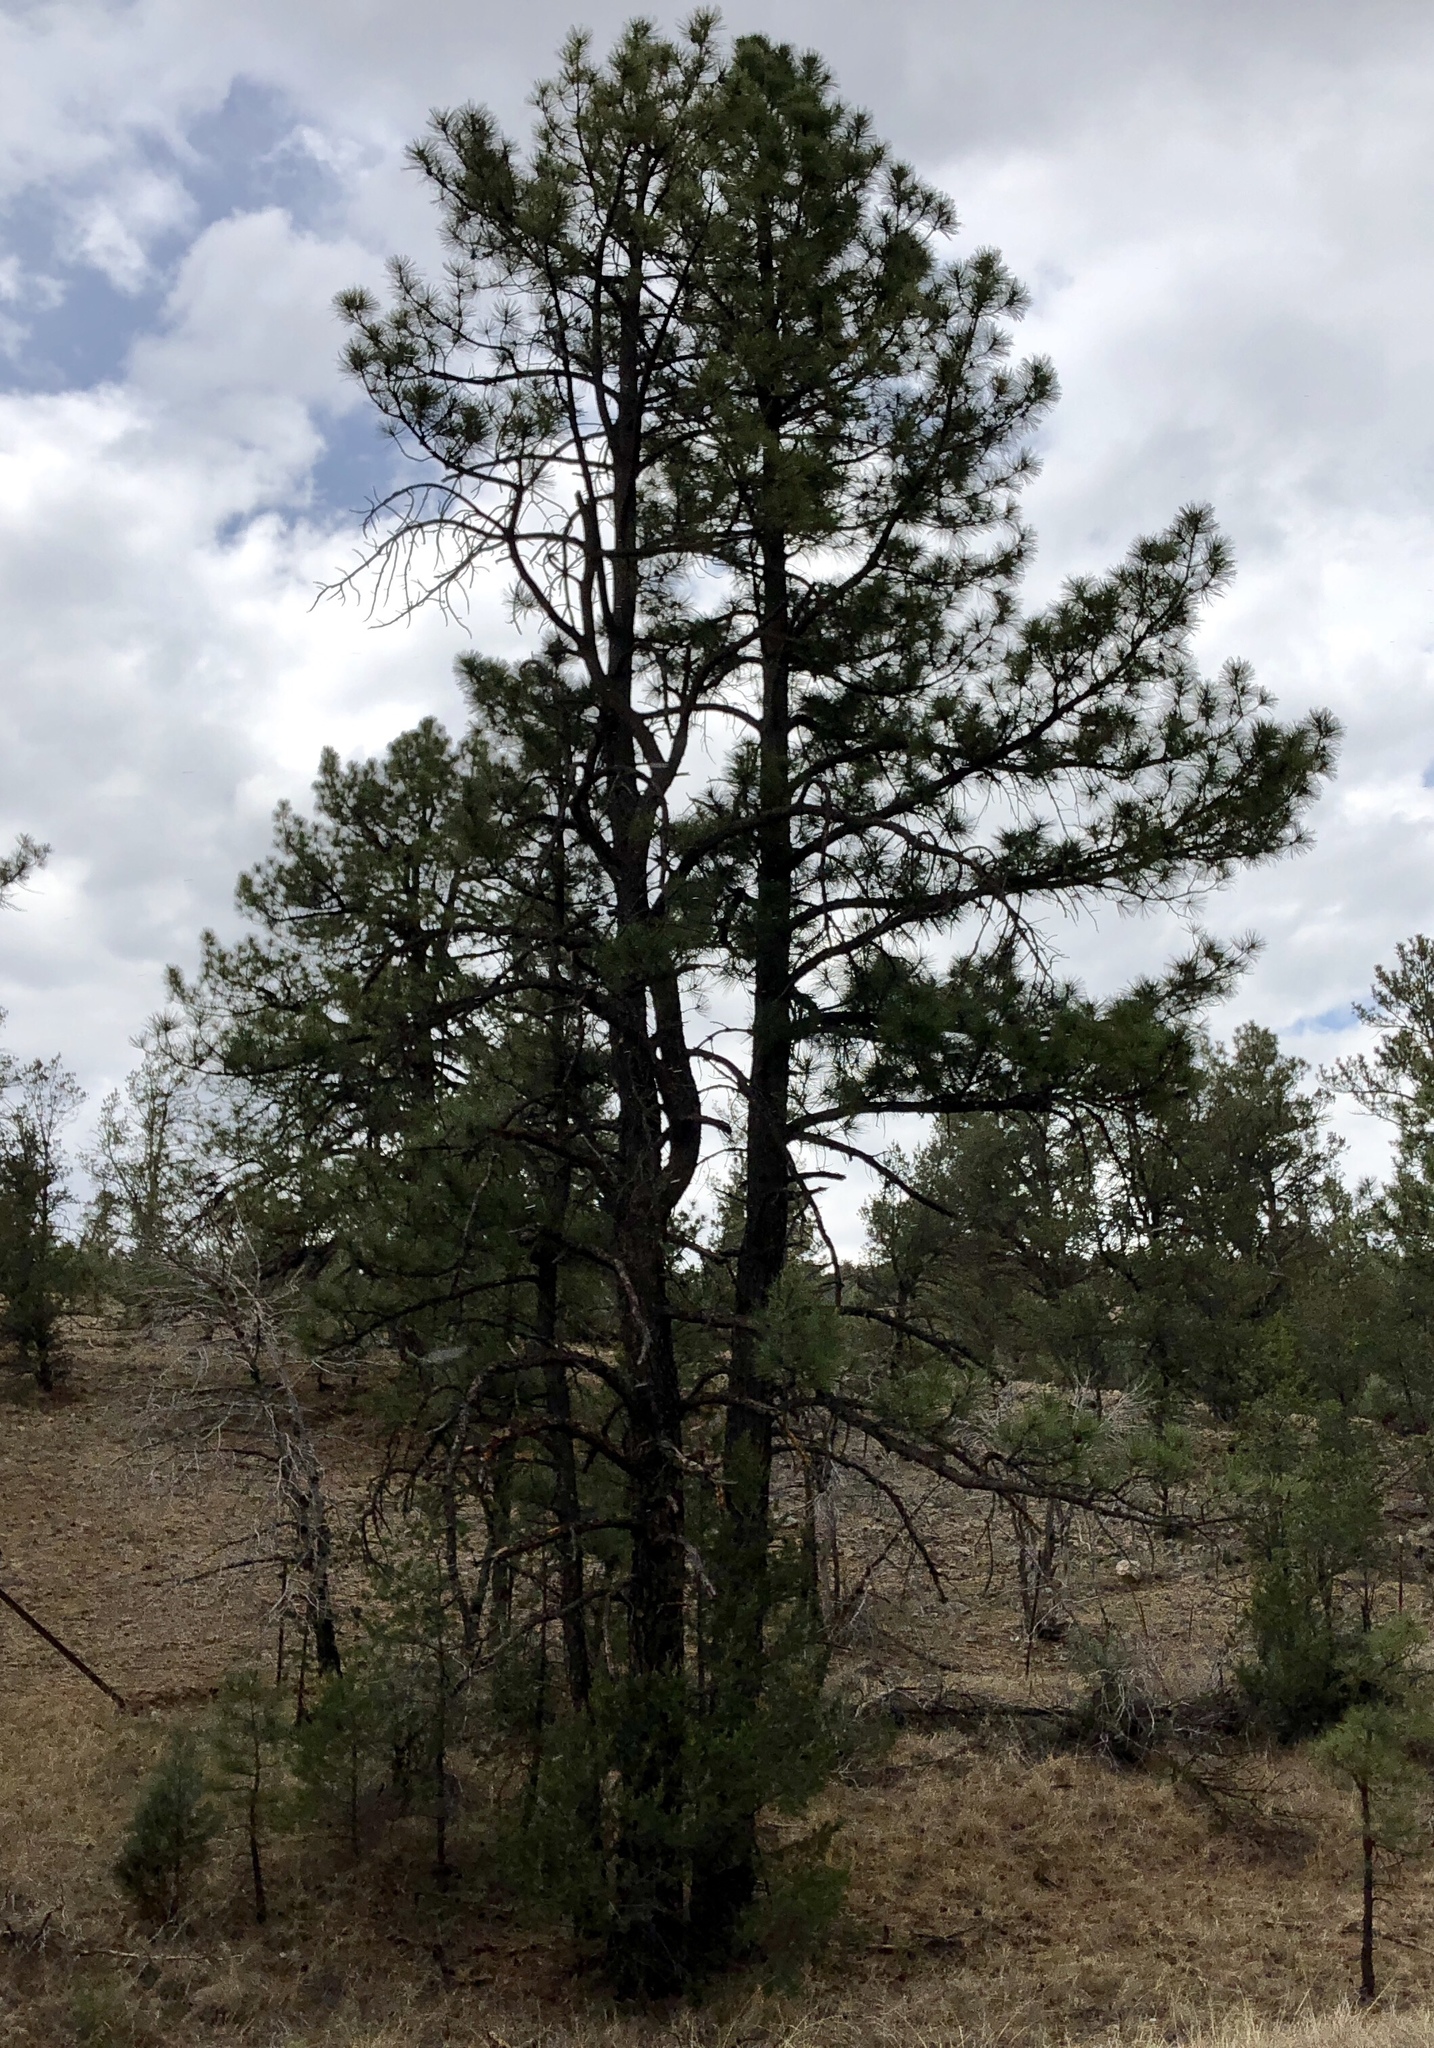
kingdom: Plantae
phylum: Tracheophyta
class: Pinopsida
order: Pinales
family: Pinaceae
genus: Pinus
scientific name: Pinus ponderosa
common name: Western yellow-pine
